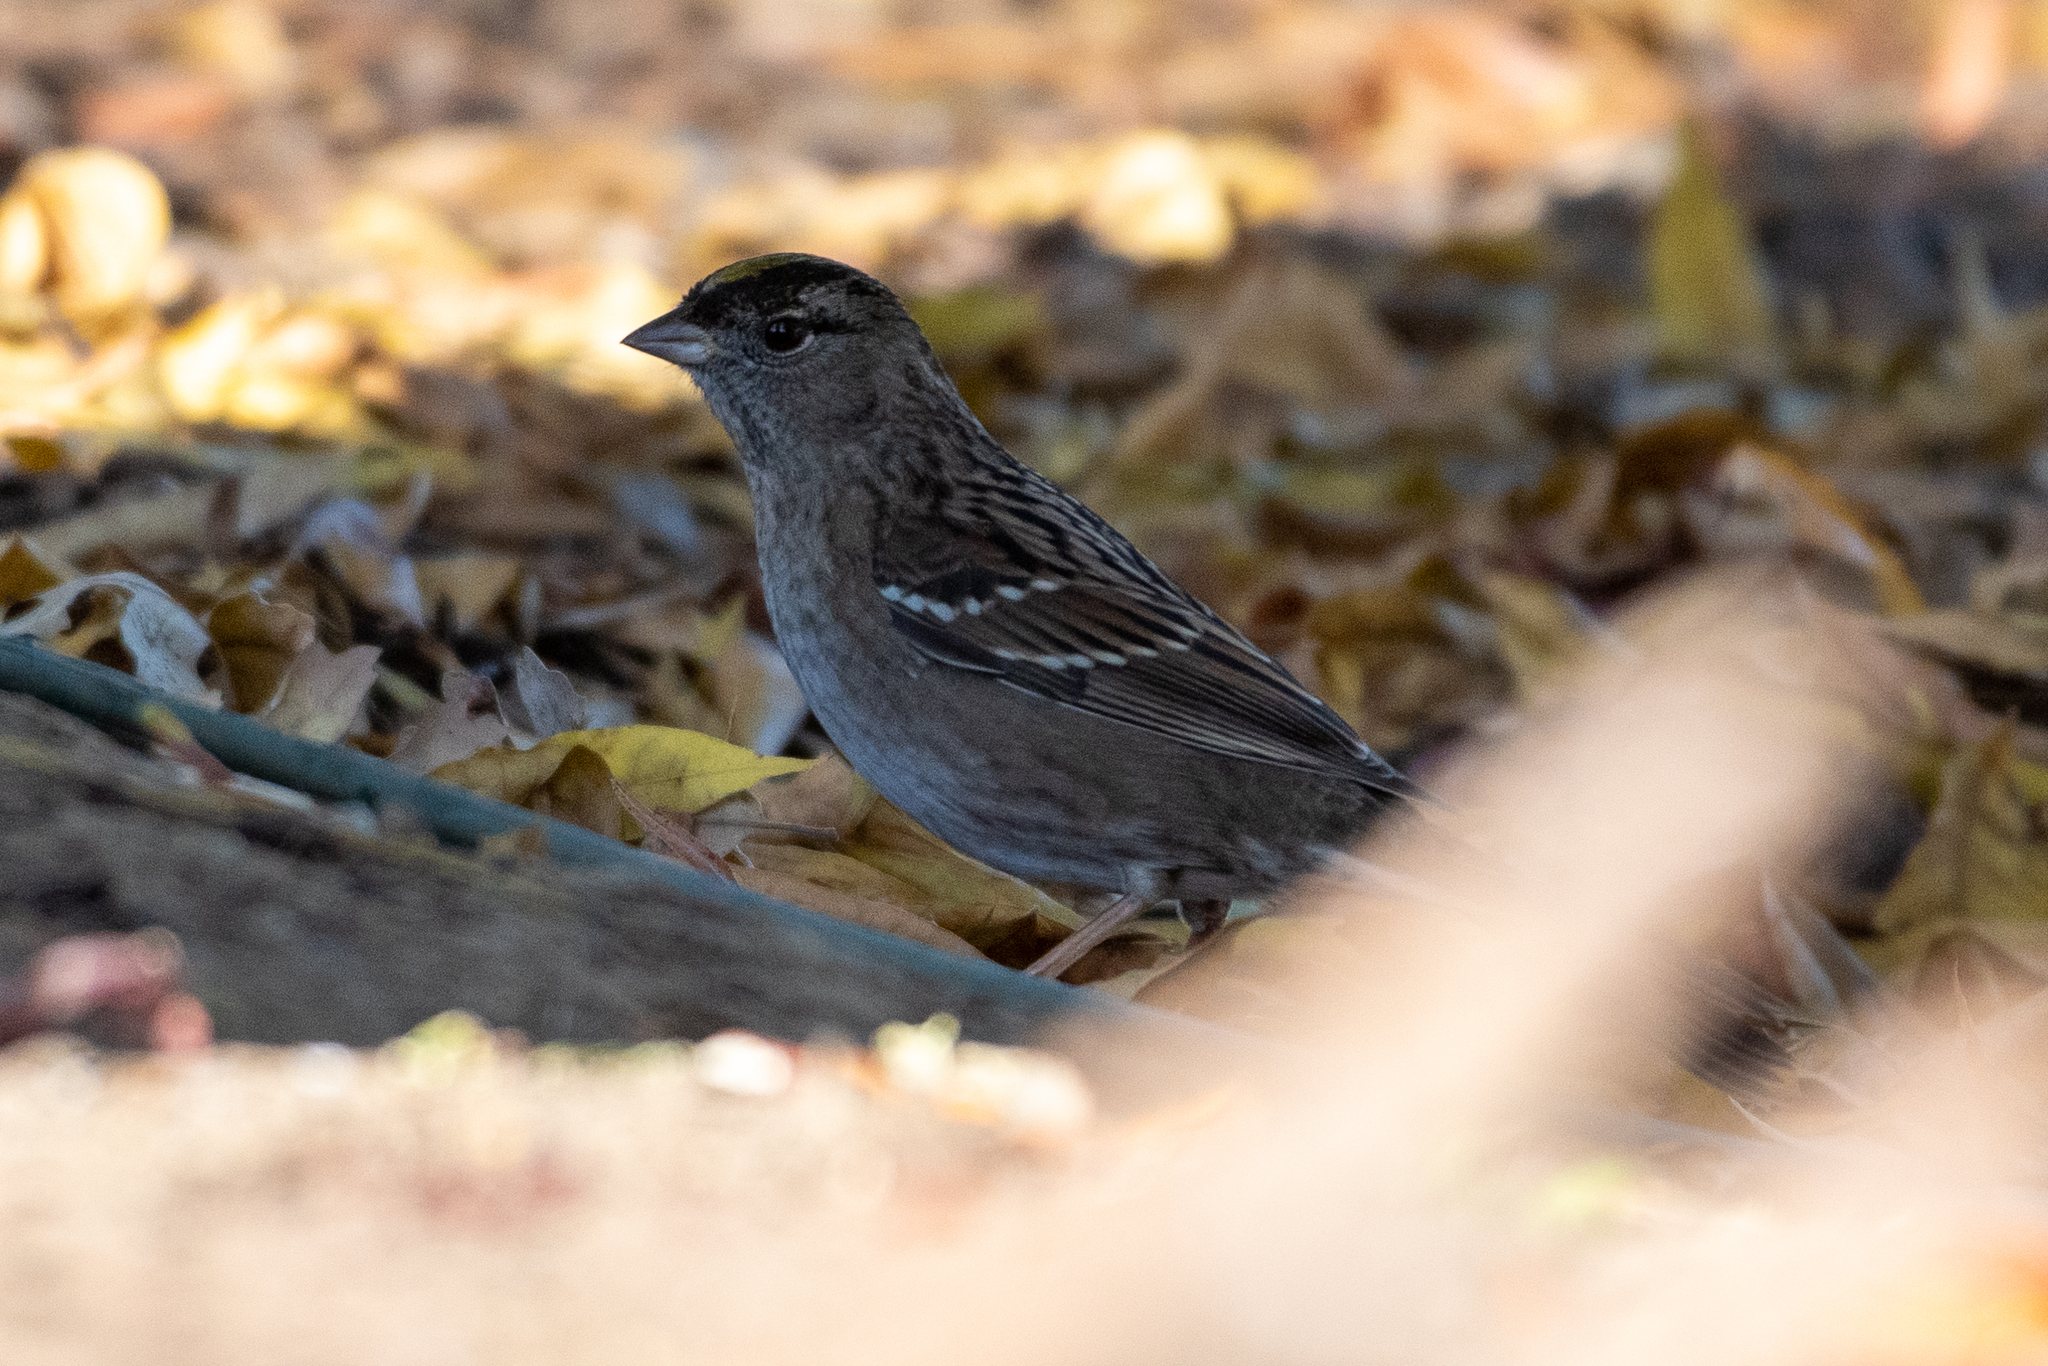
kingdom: Animalia
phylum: Chordata
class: Aves
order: Passeriformes
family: Passerellidae
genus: Zonotrichia
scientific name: Zonotrichia atricapilla
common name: Golden-crowned sparrow
